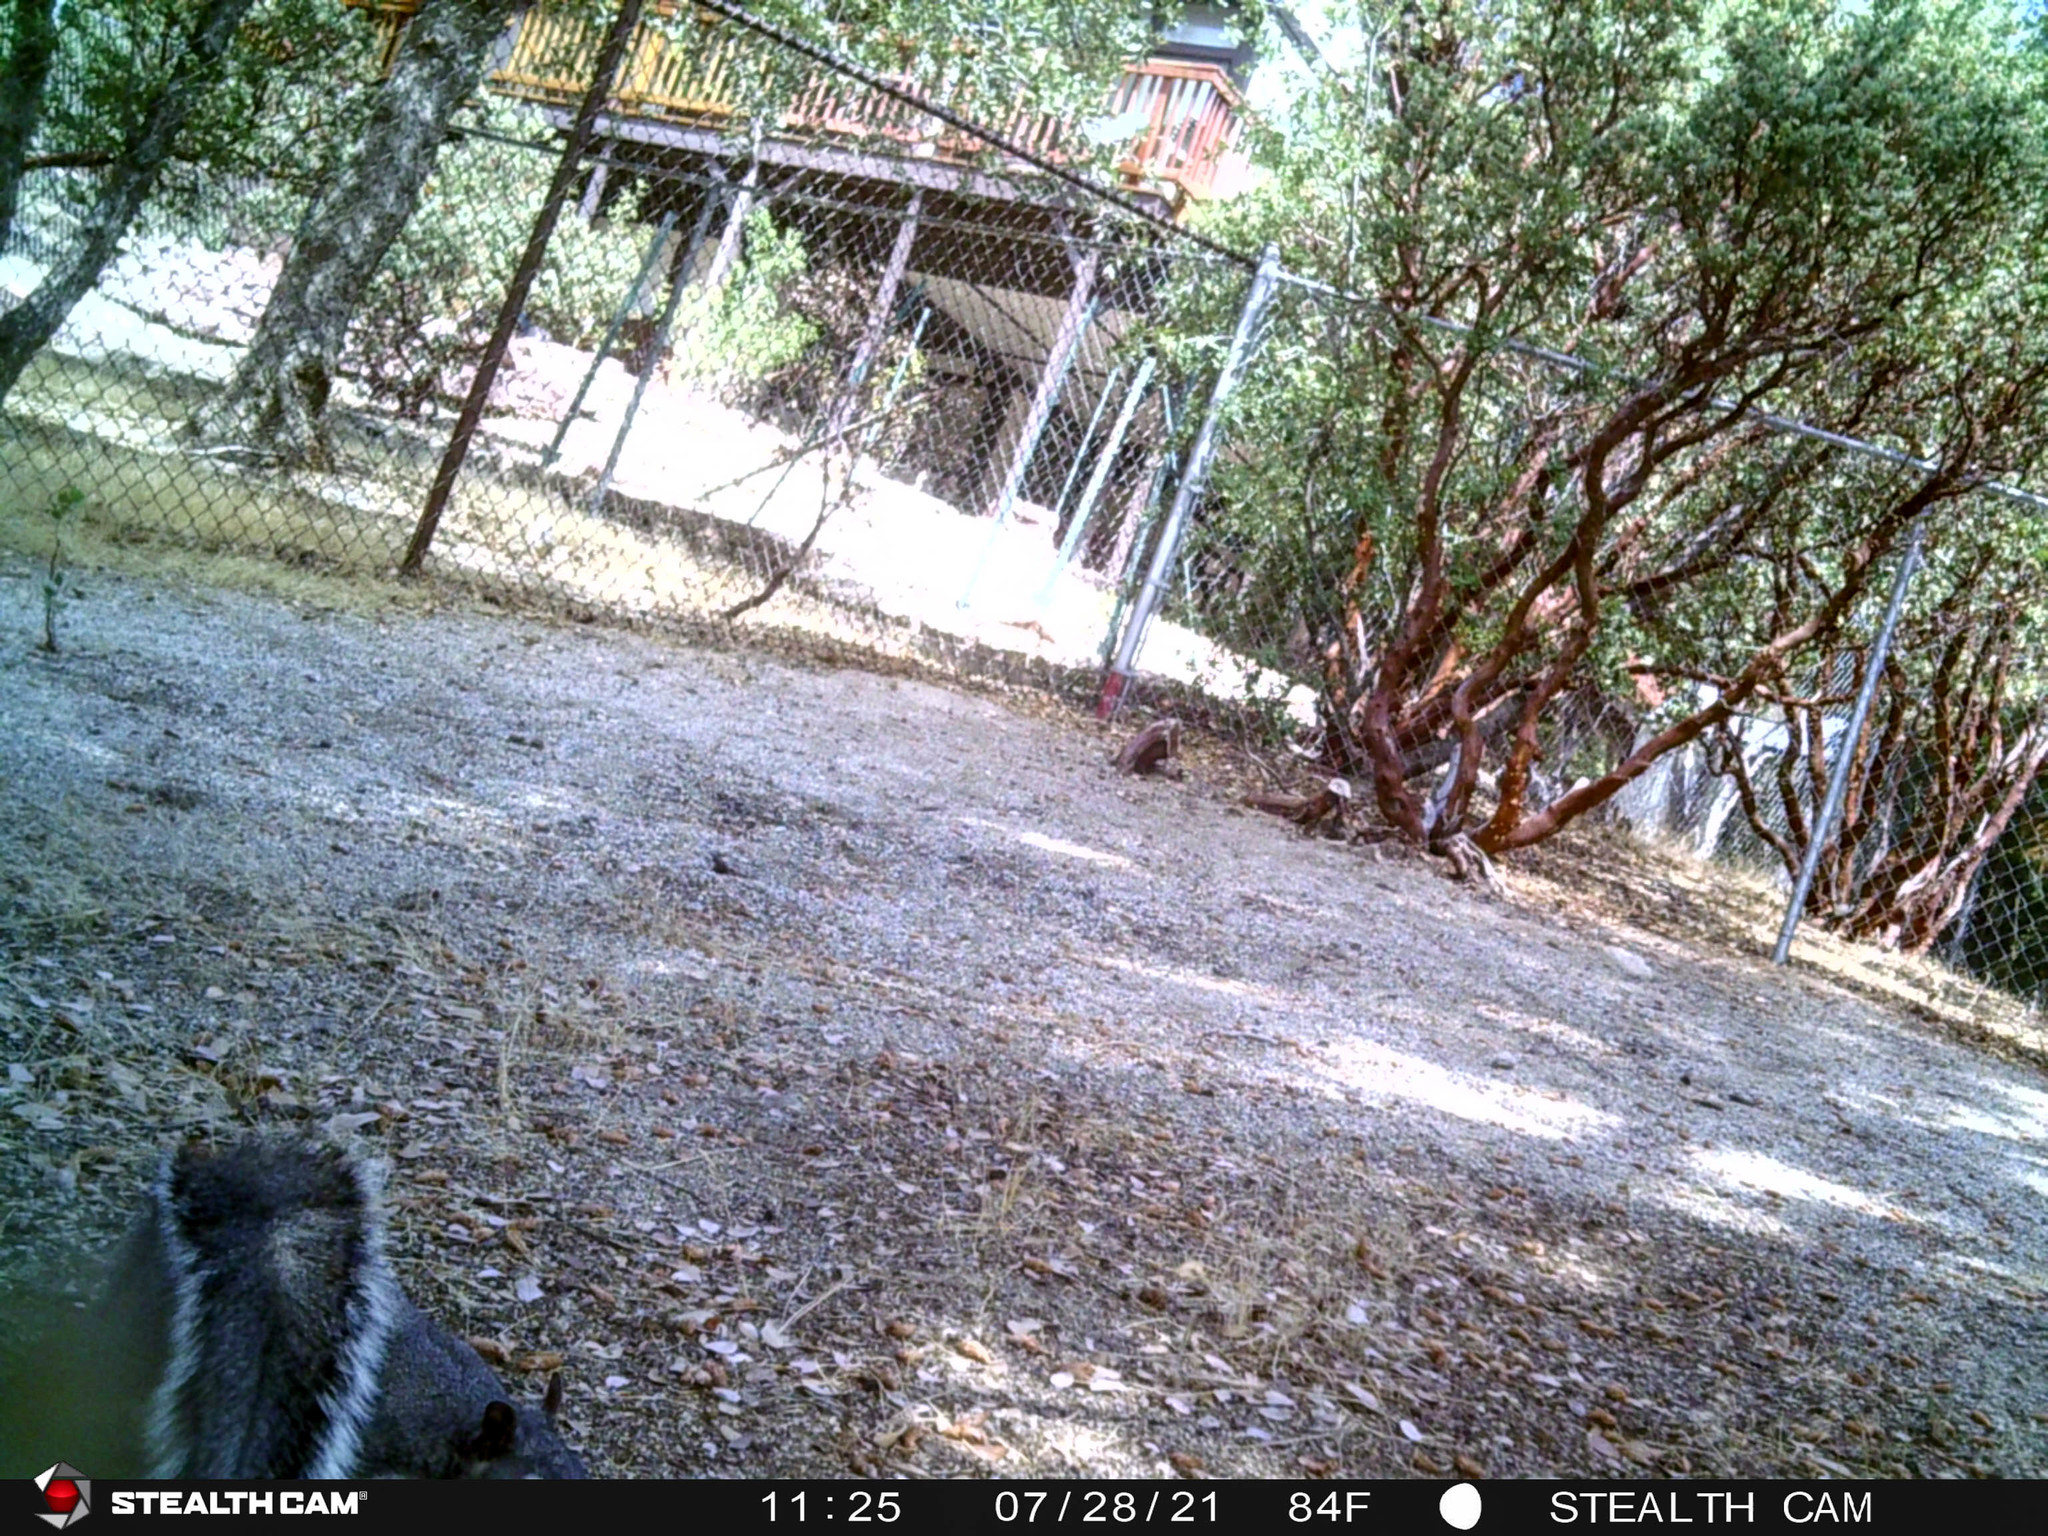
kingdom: Animalia
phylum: Chordata
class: Mammalia
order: Rodentia
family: Sciuridae
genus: Sciurus
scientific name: Sciurus griseus
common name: Western gray squirrel
